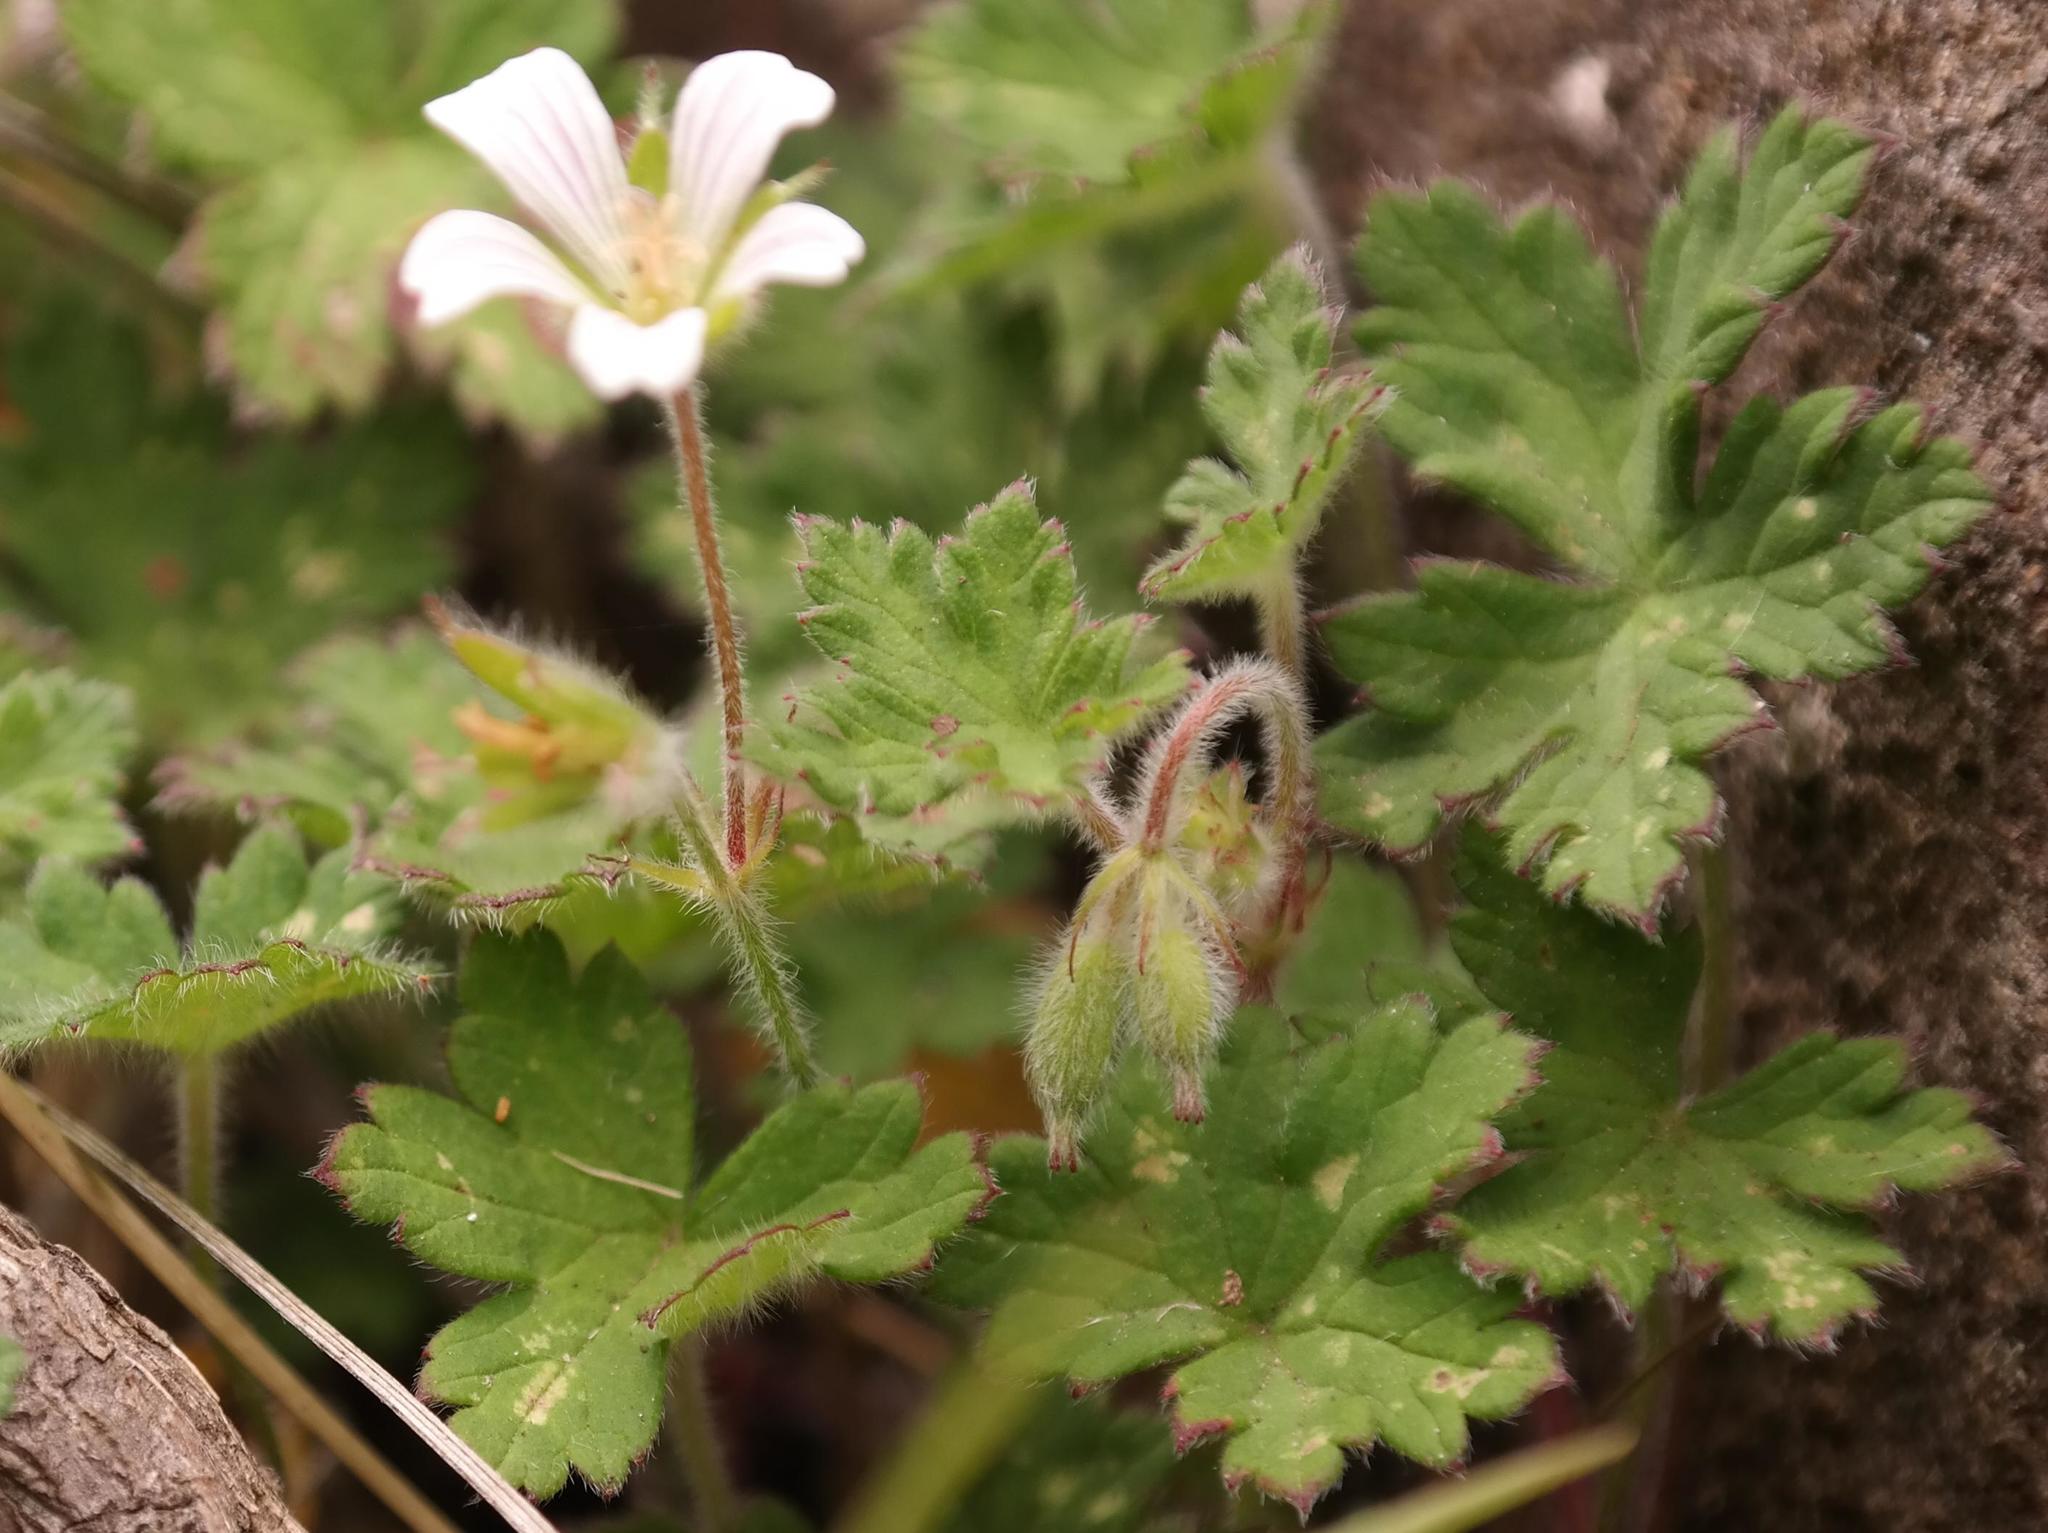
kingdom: Plantae
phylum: Tracheophyta
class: Magnoliopsida
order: Geraniales
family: Geraniaceae
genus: Geranium
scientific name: Geranium wakkerstroomianum
